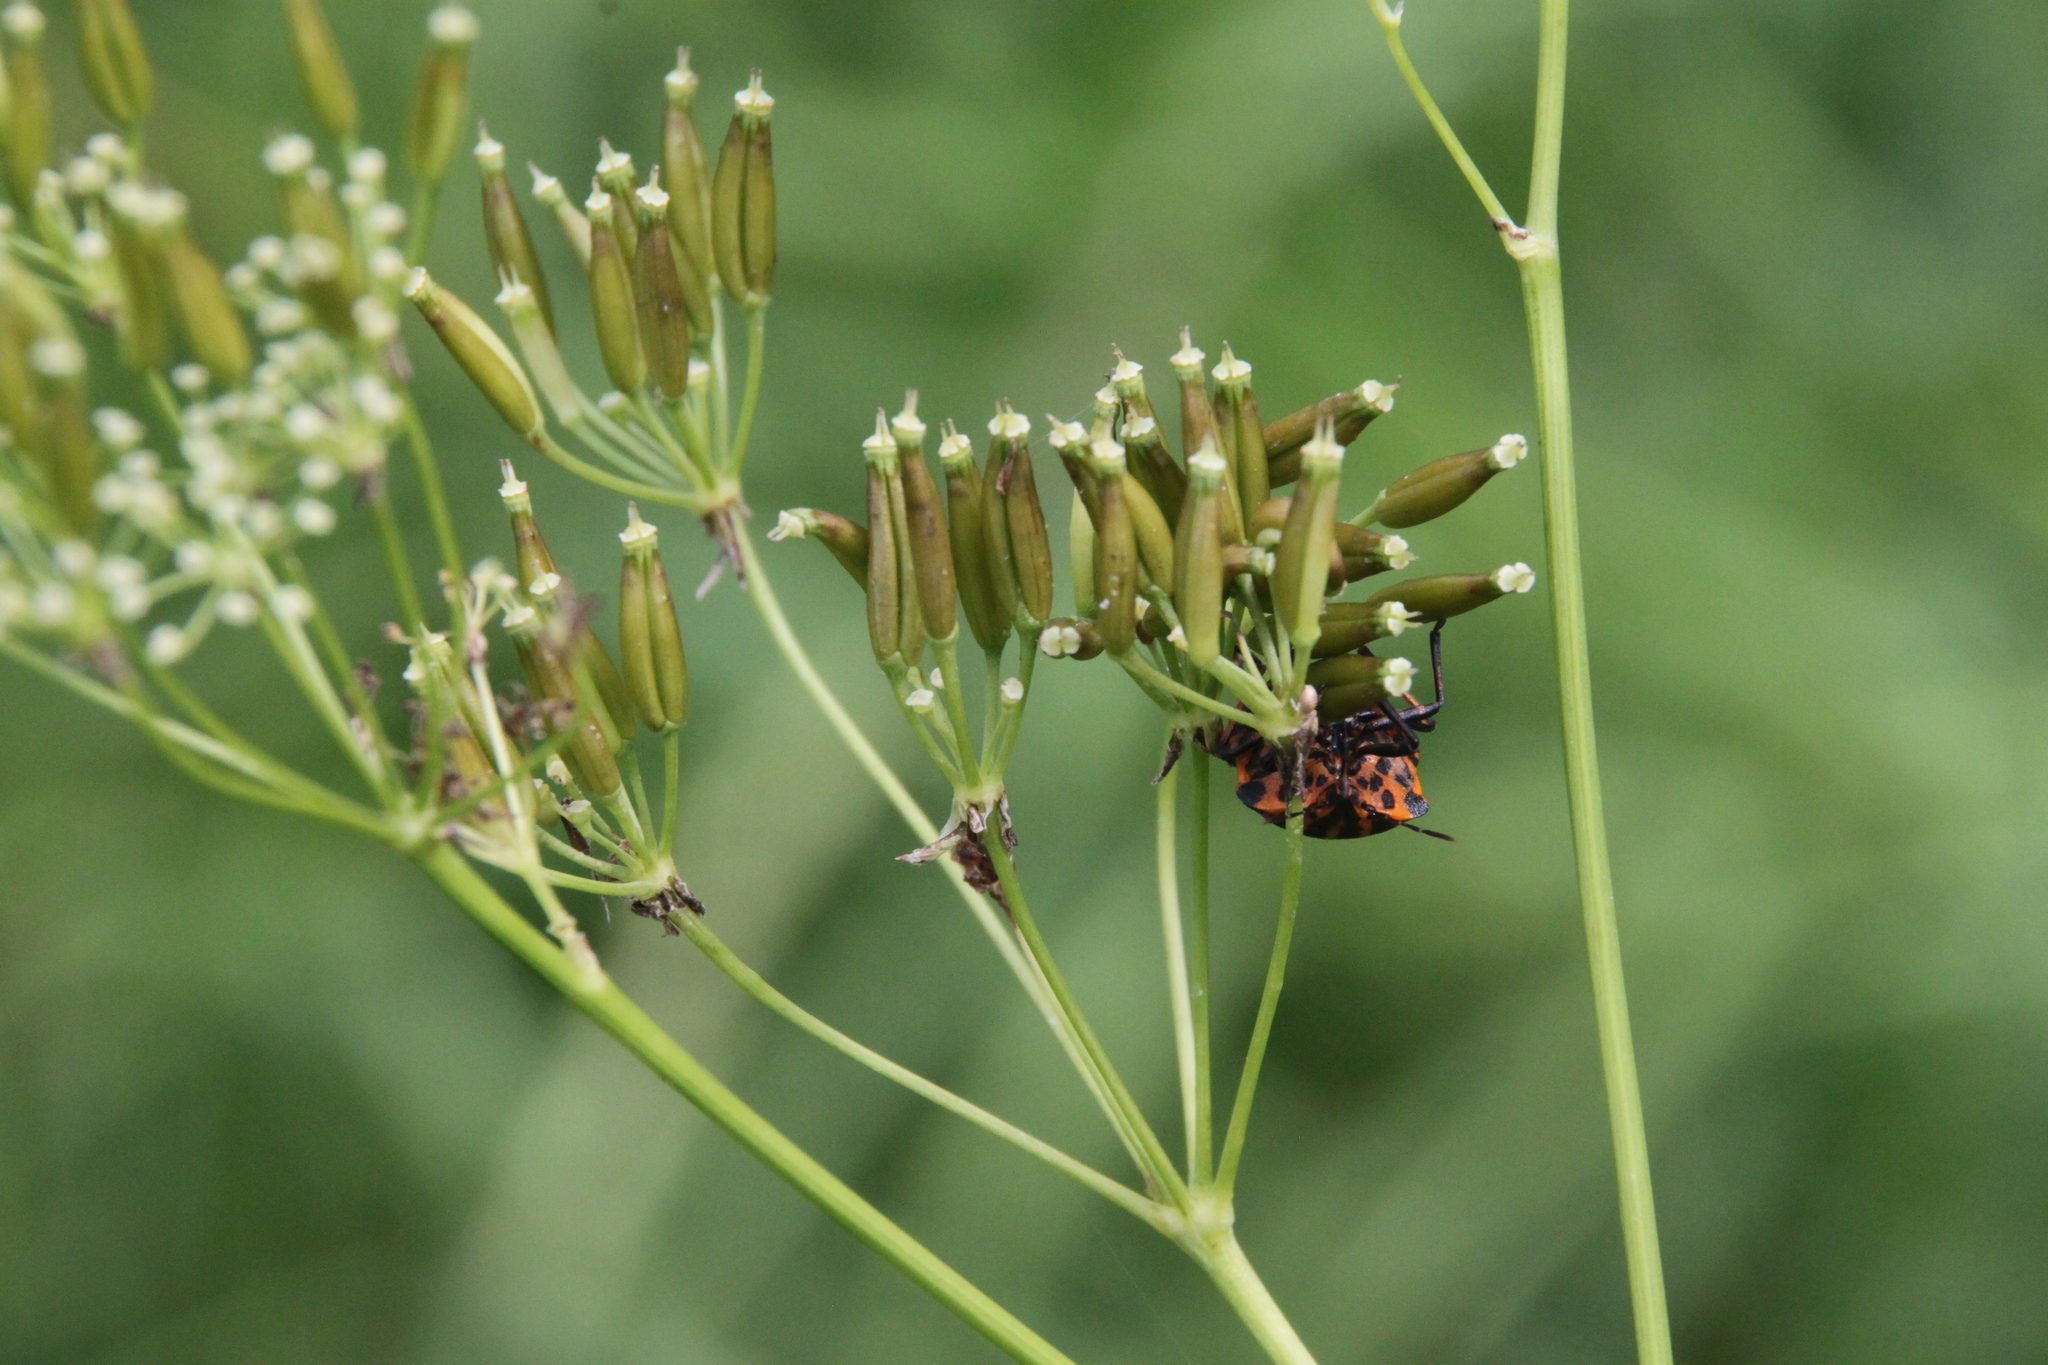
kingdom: Animalia
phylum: Arthropoda
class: Insecta
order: Hemiptera
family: Pentatomidae
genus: Graphosoma
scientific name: Graphosoma italicum
